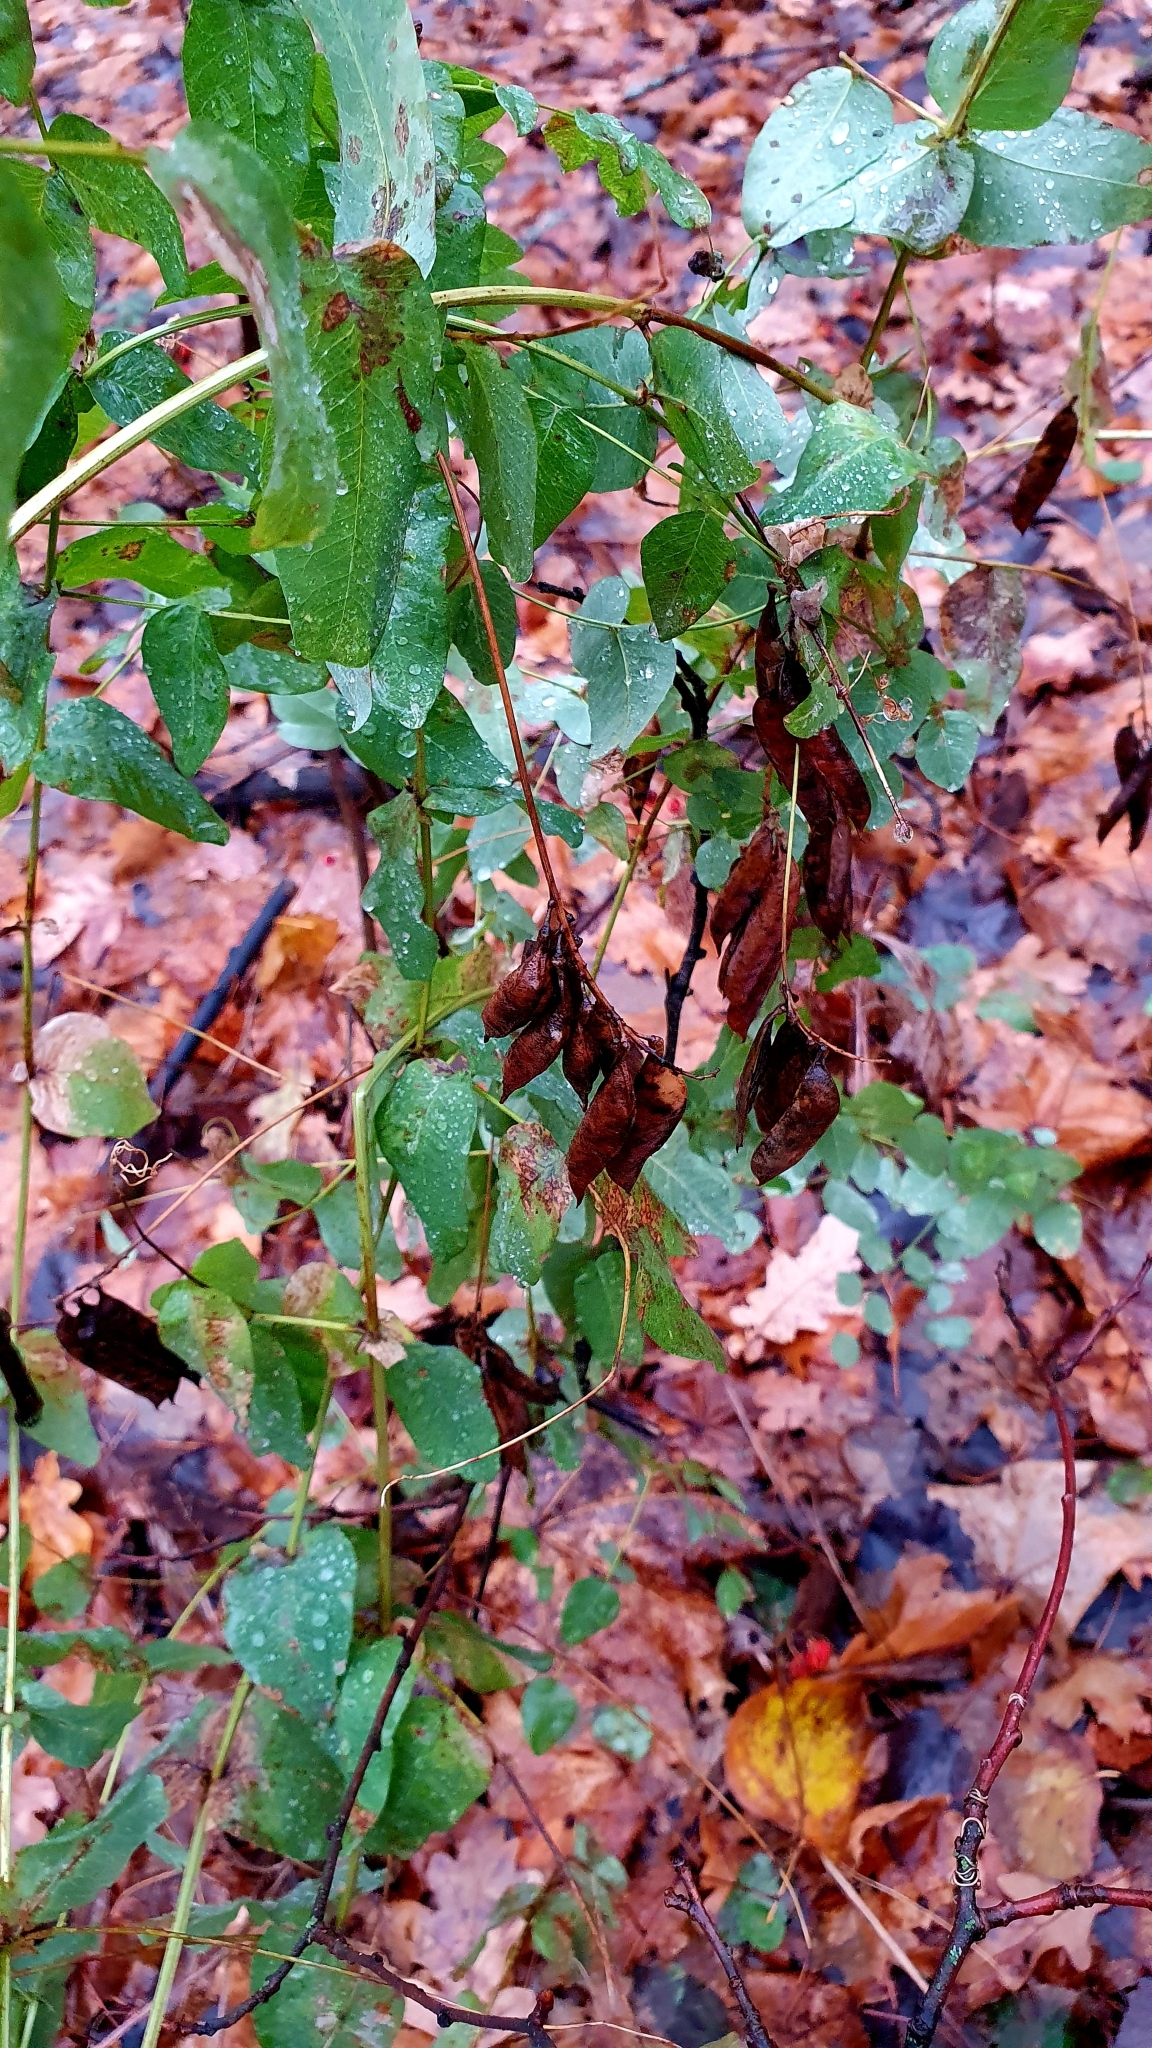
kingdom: Plantae
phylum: Tracheophyta
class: Magnoliopsida
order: Fabales
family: Fabaceae
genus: Vicia
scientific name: Vicia pisiformis
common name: Pale-flower vetch
